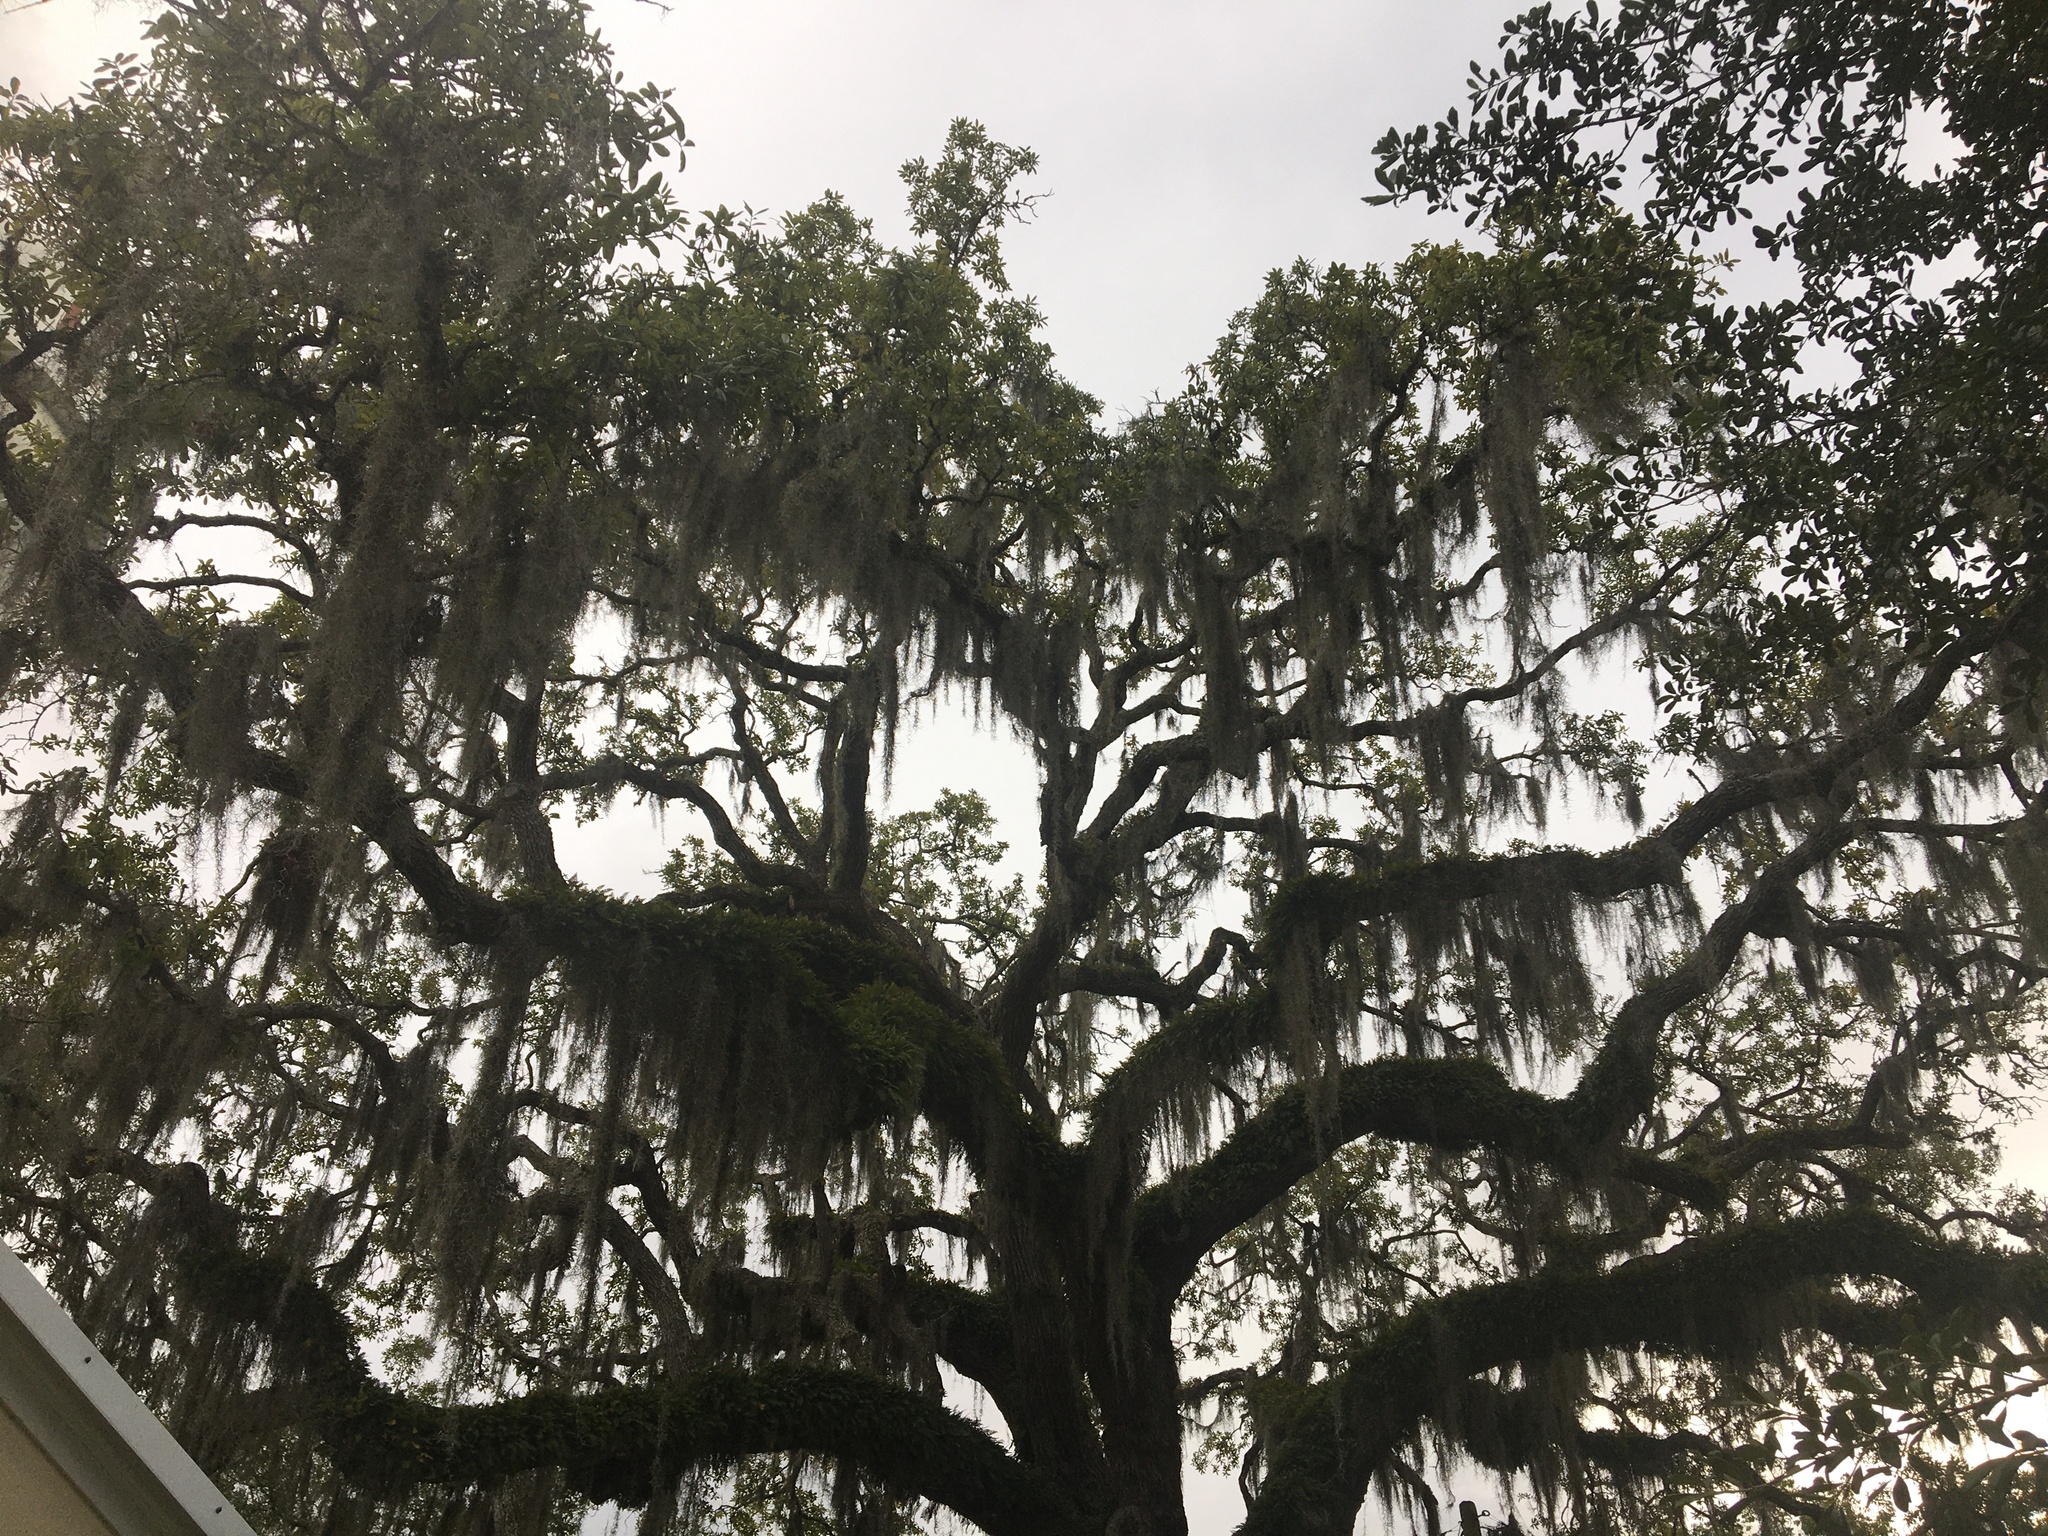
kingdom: Plantae
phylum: Tracheophyta
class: Liliopsida
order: Poales
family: Bromeliaceae
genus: Tillandsia
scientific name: Tillandsia usneoides
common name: Spanish moss
